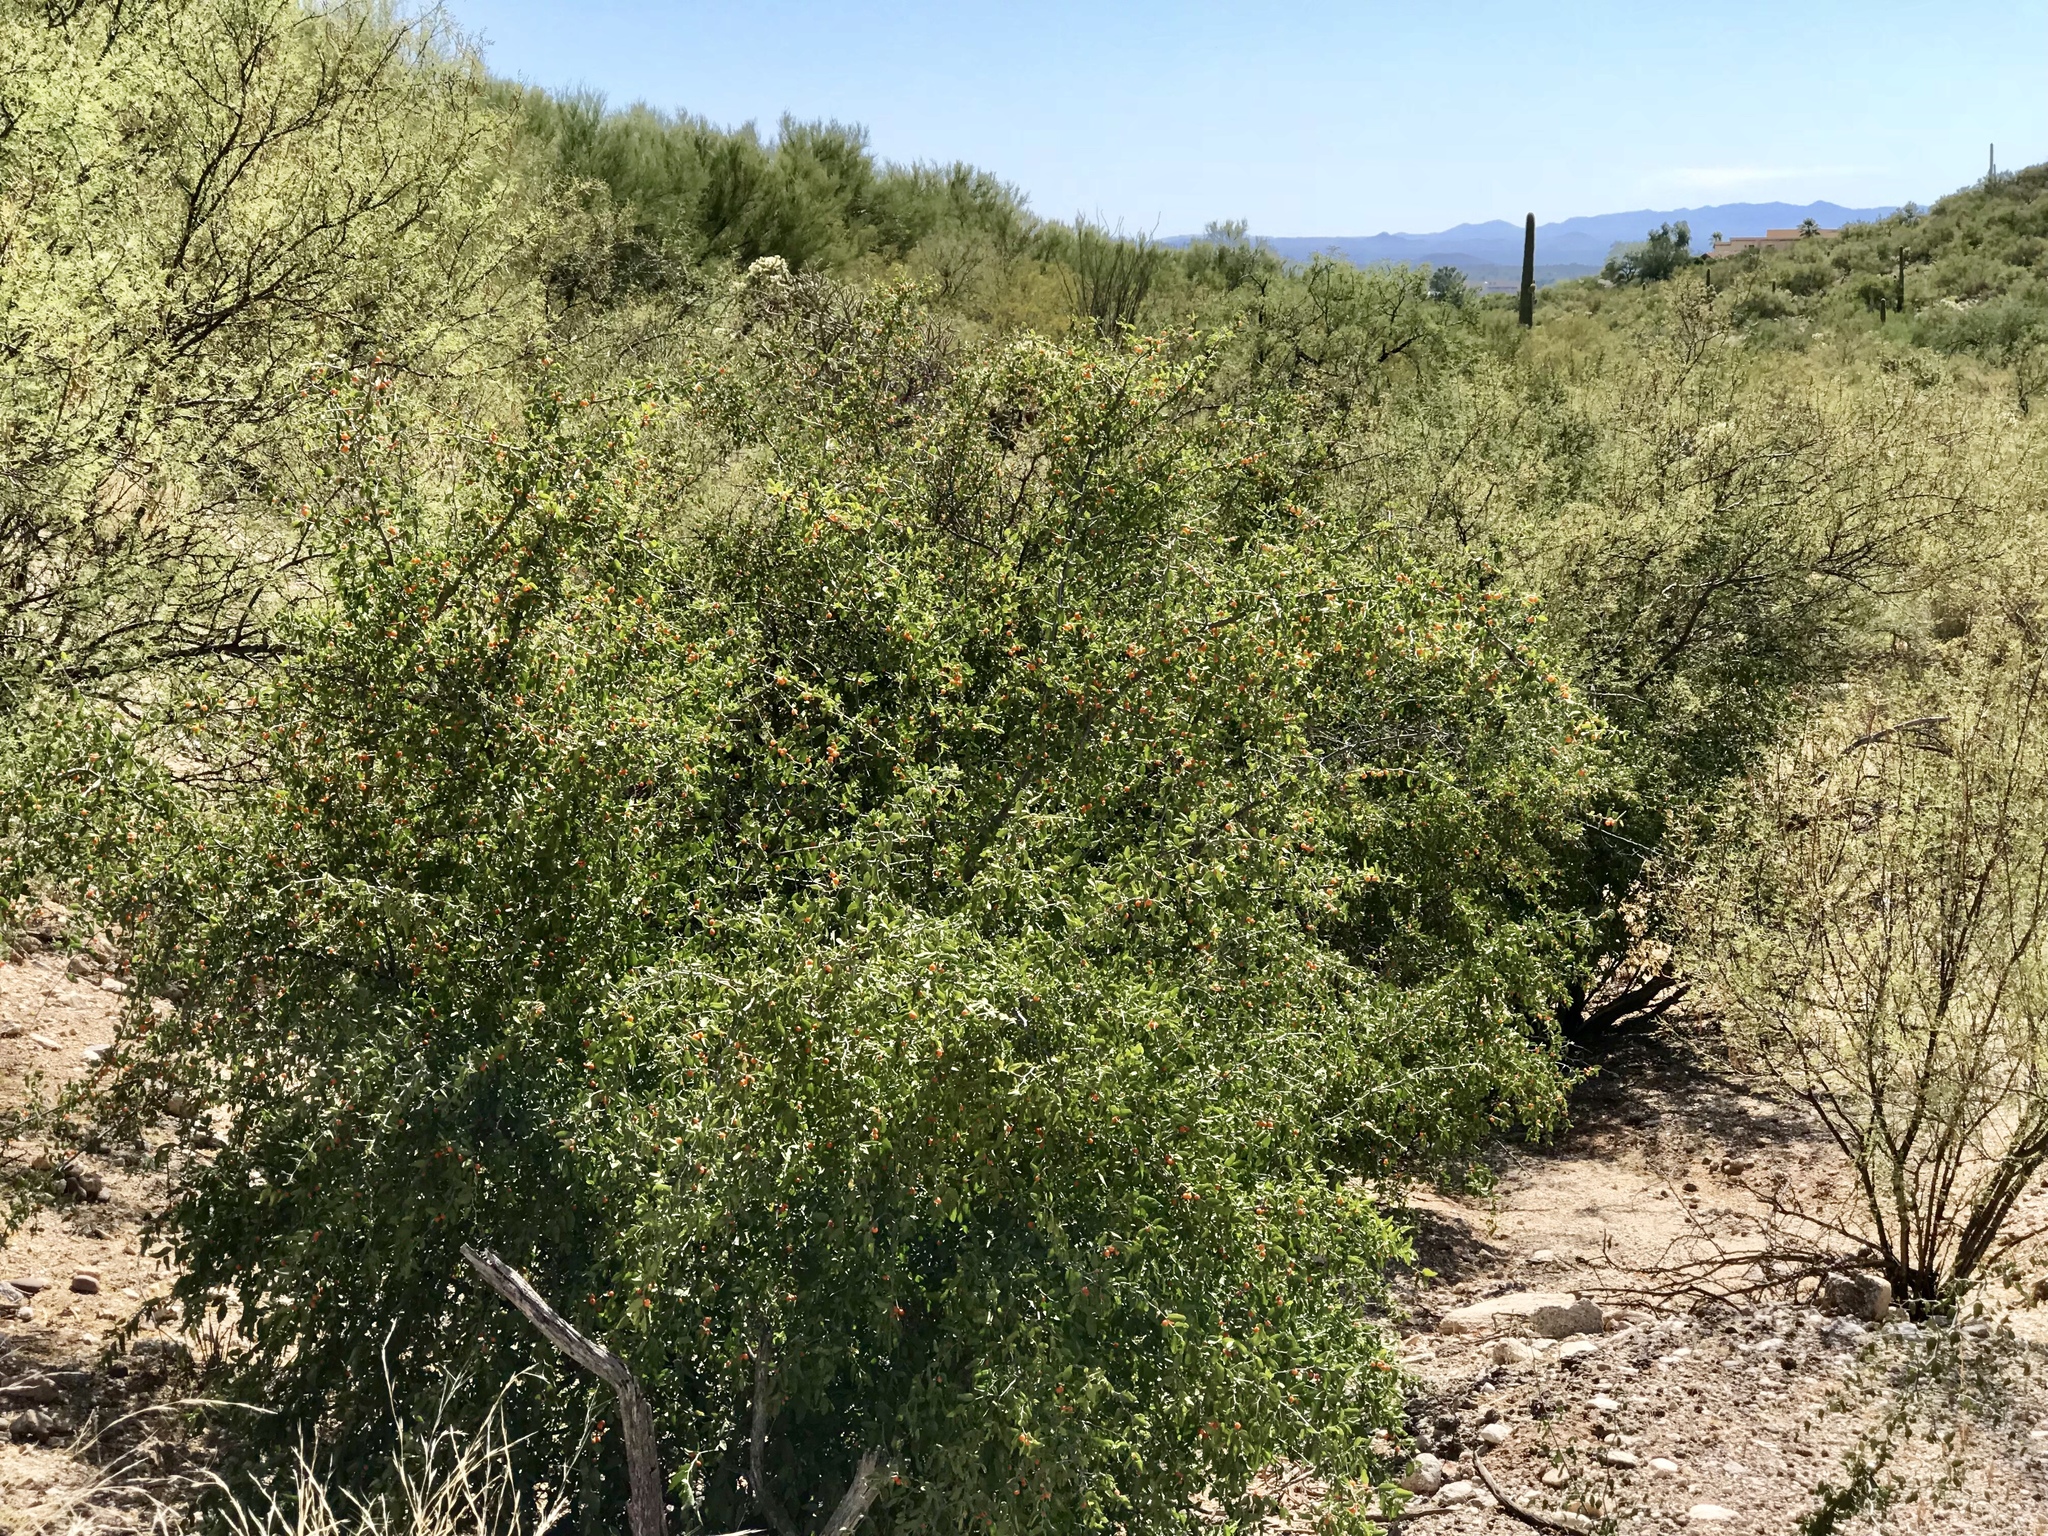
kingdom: Plantae
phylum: Tracheophyta
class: Magnoliopsida
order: Rosales
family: Cannabaceae
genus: Celtis
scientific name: Celtis pallida
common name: Desert hackberry
